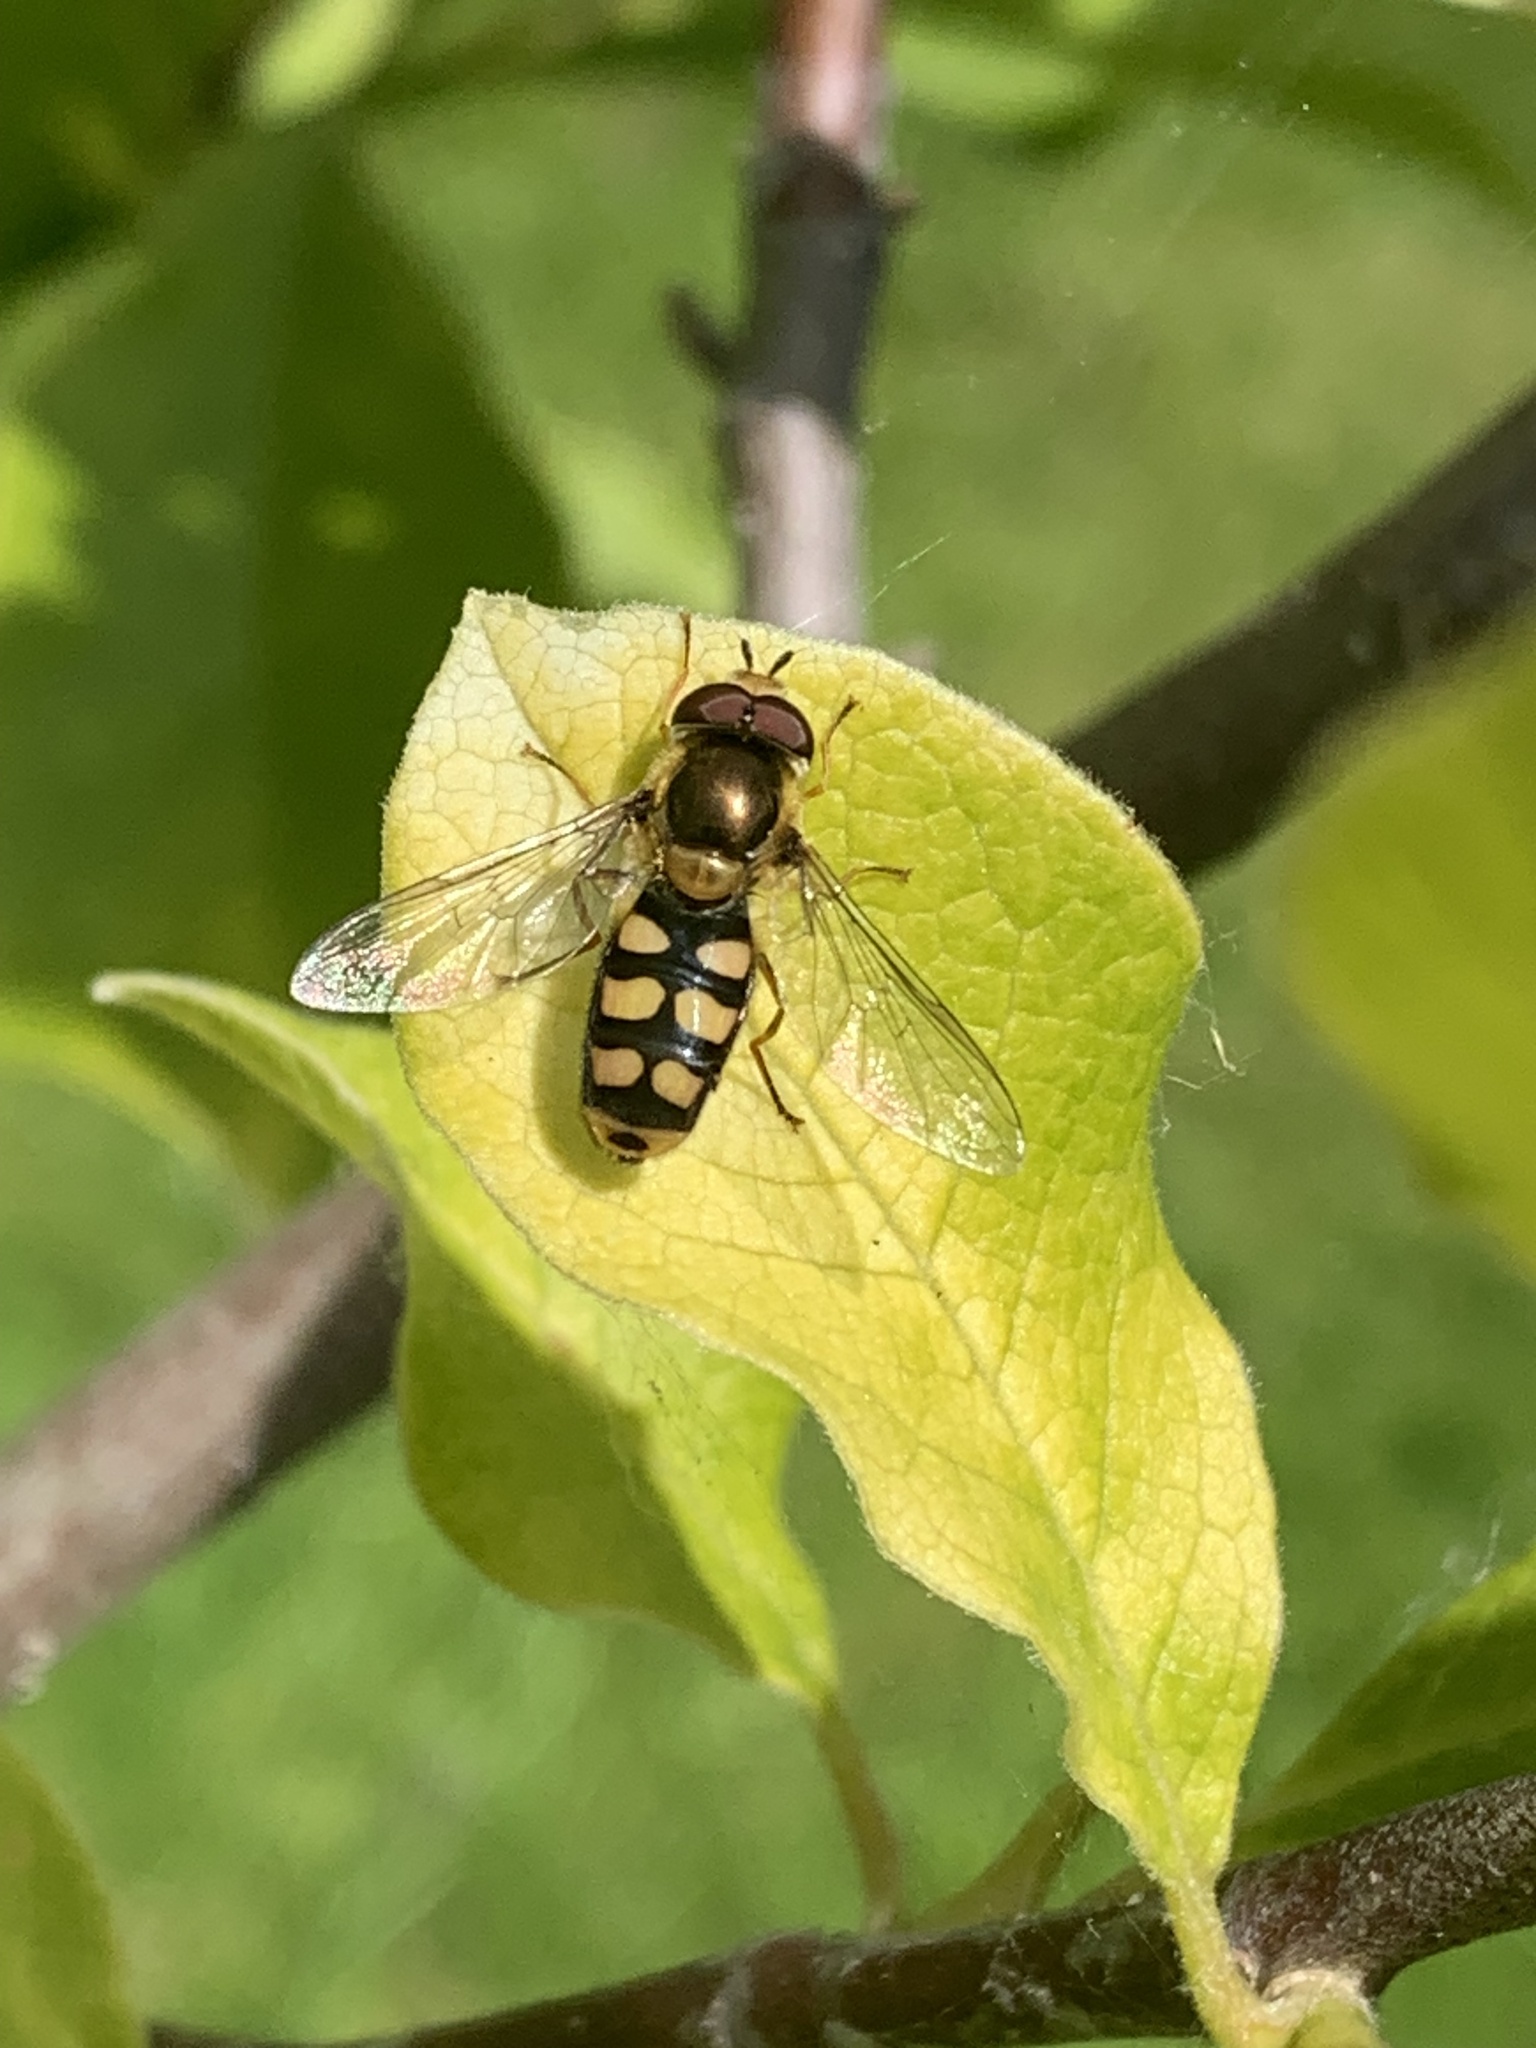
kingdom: Animalia
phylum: Arthropoda
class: Insecta
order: Diptera
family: Syrphidae
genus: Eupeodes
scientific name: Eupeodes
